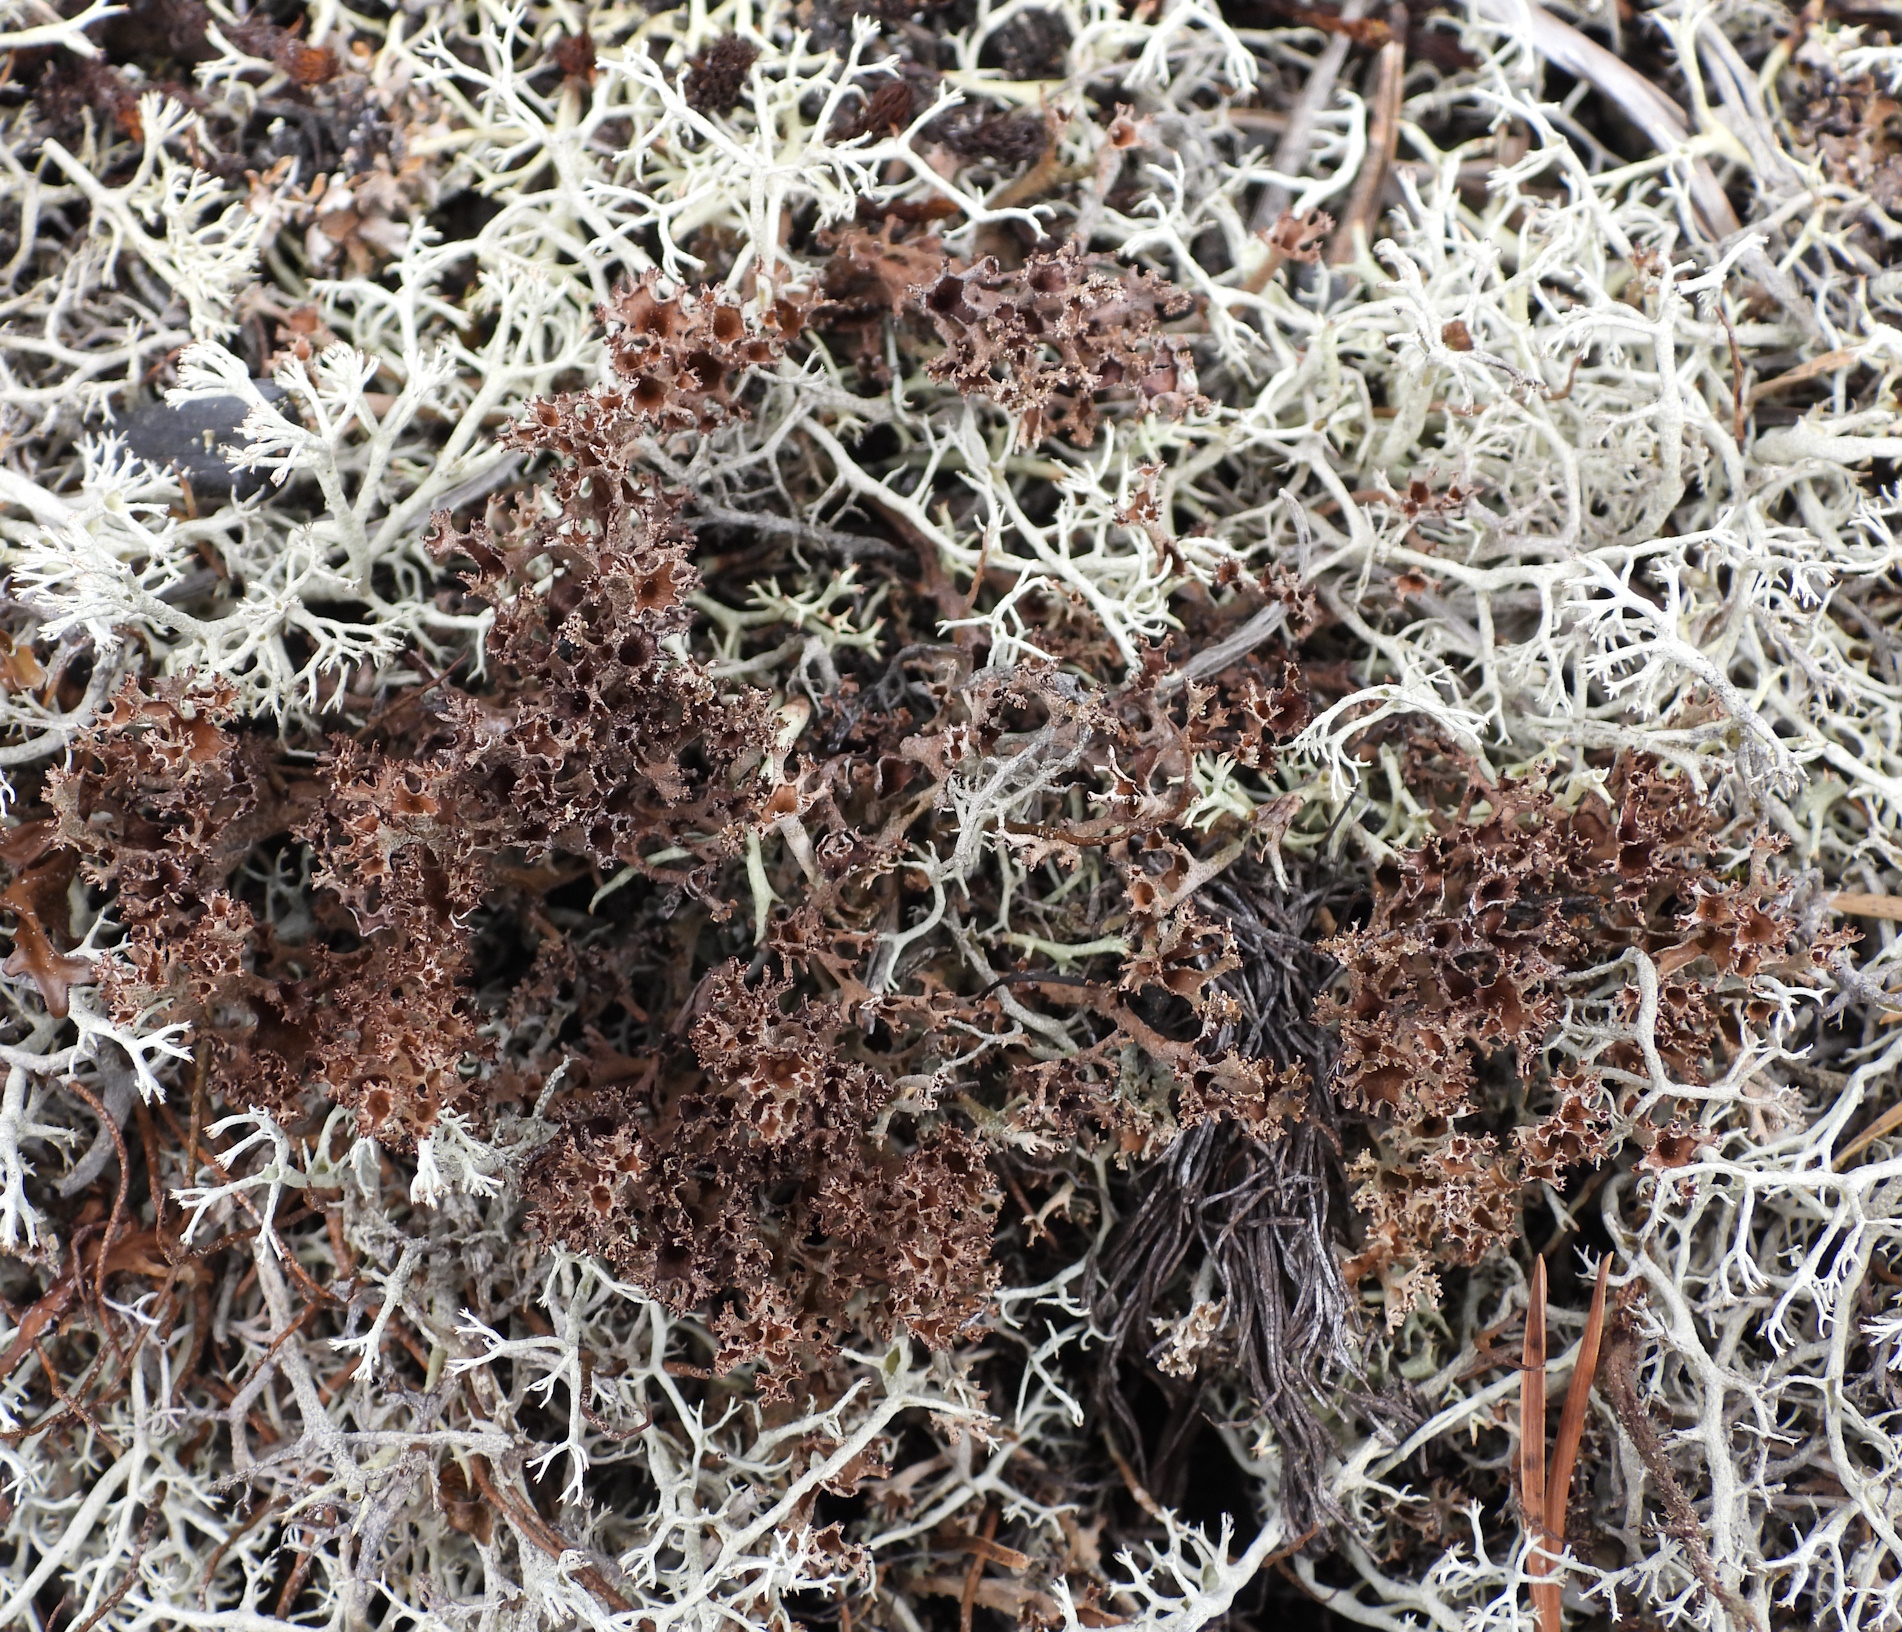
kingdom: Fungi
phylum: Ascomycota
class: Lecanoromycetes
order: Lecanorales
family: Cladoniaceae
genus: Cladonia
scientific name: Cladonia crispata
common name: Organ-pipe lichen
